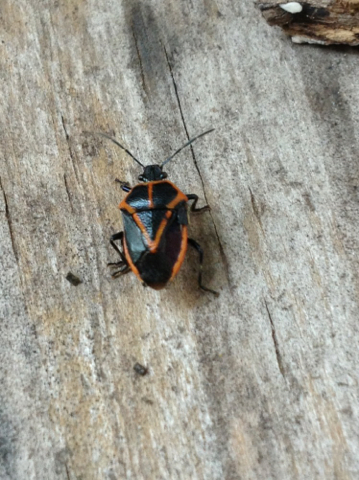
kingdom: Animalia
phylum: Arthropoda
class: Insecta
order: Hemiptera
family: Pentatomidae
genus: Perillus
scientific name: Perillus strigipes
